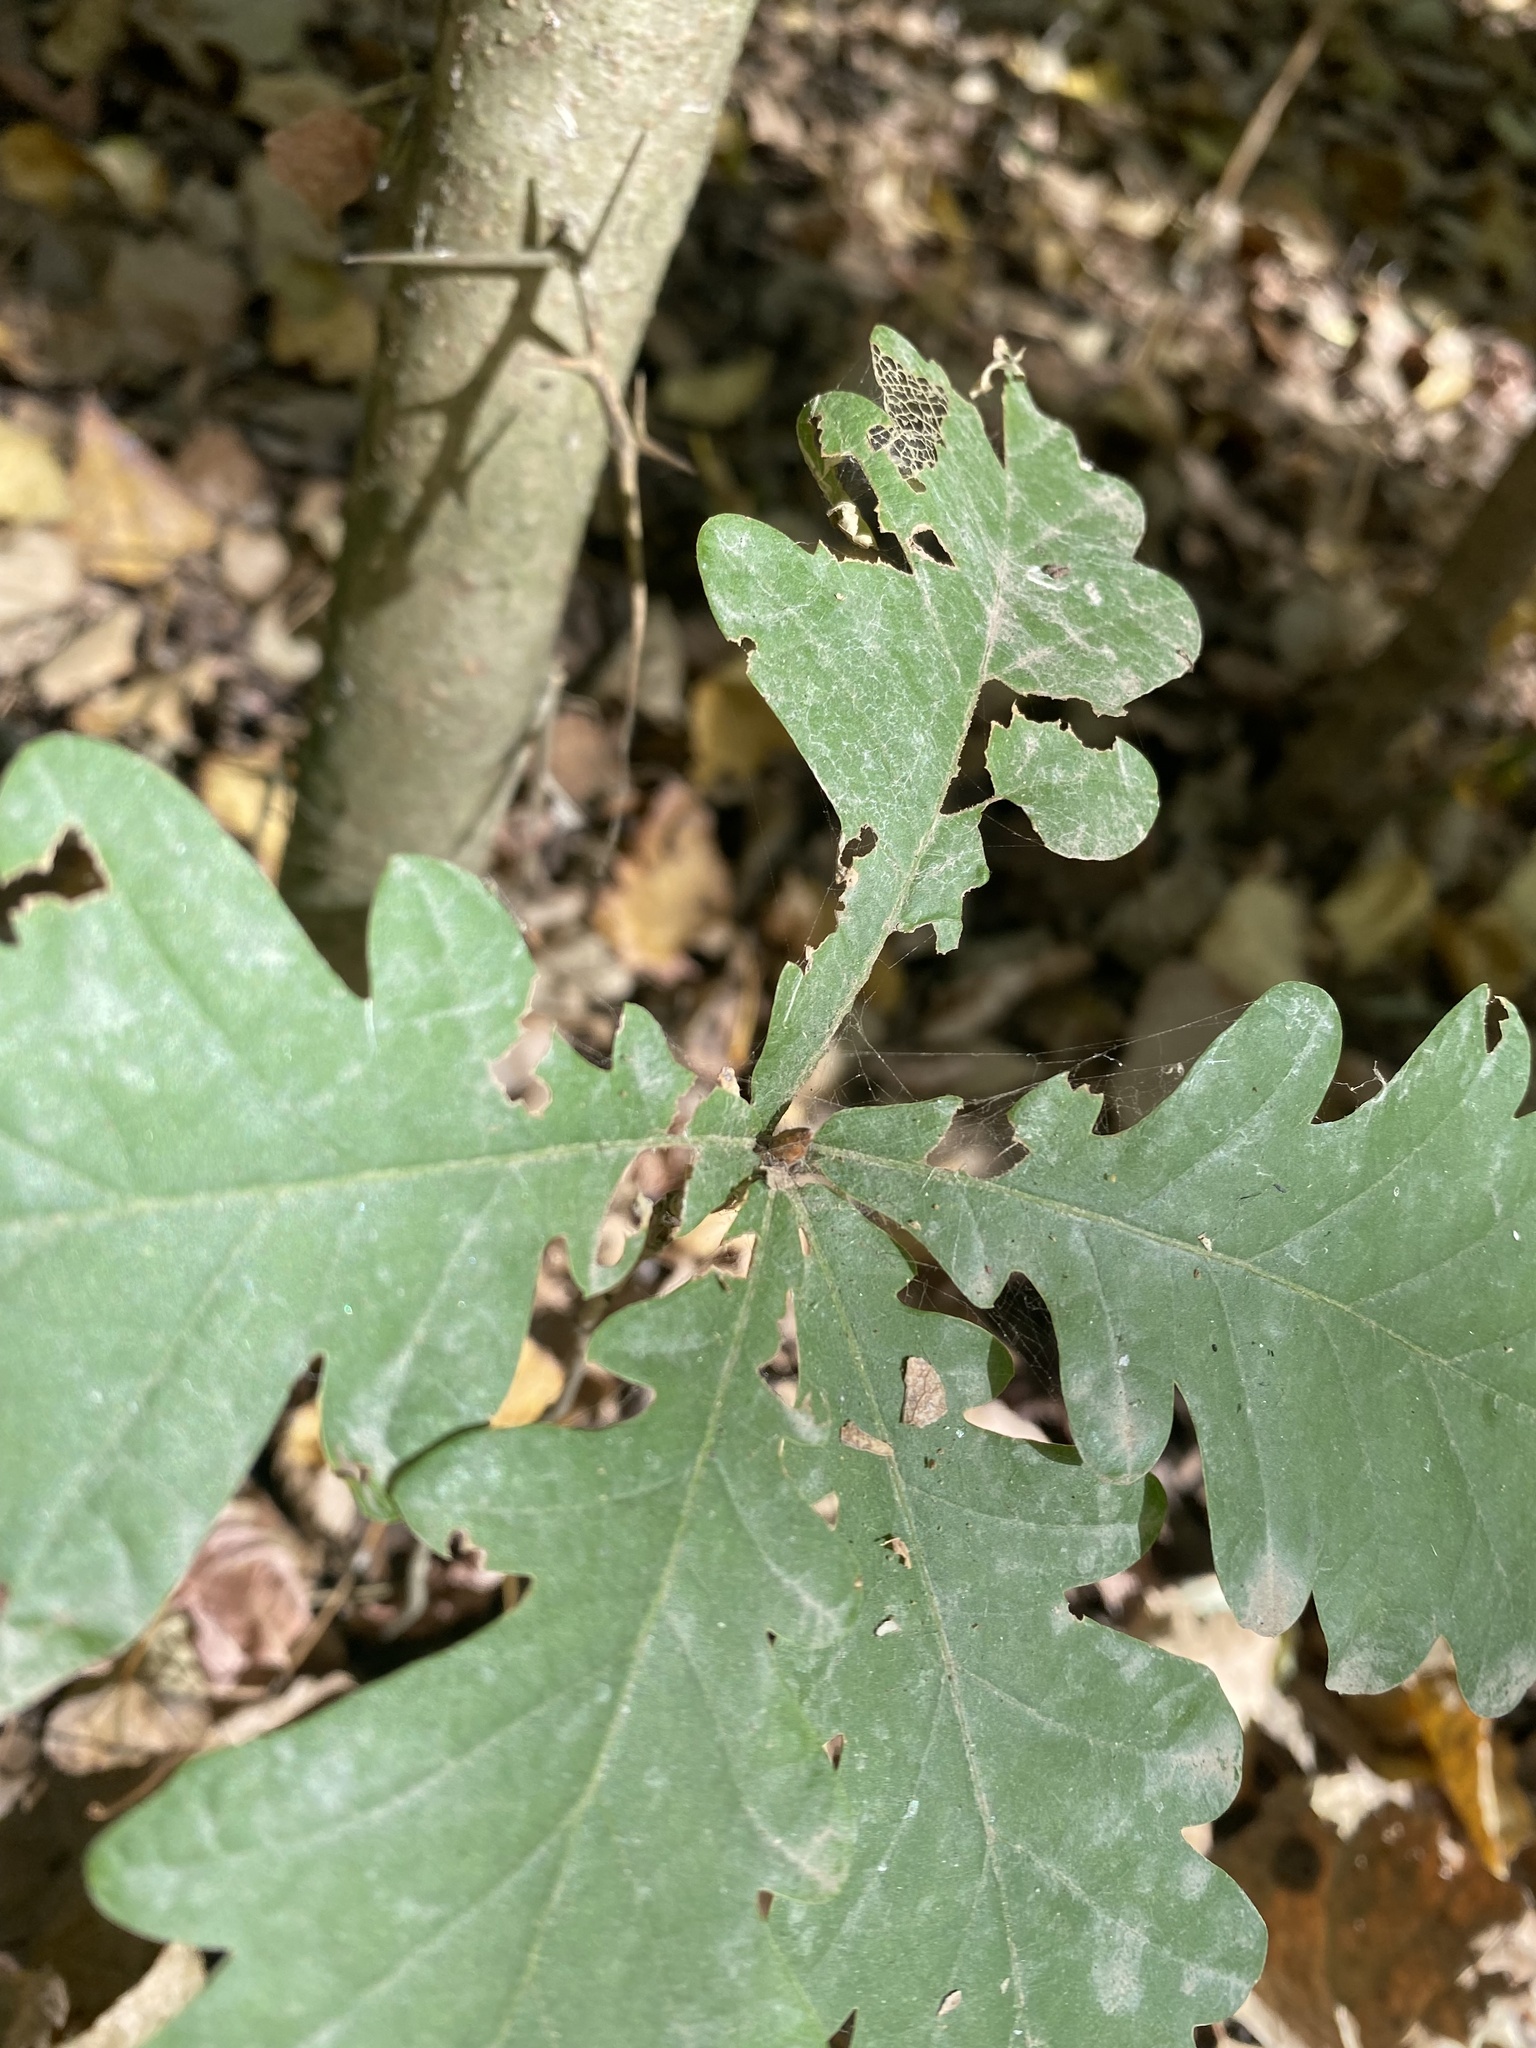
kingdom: Plantae
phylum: Tracheophyta
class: Magnoliopsida
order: Fagales
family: Fagaceae
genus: Quercus
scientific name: Quercus robur
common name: Pedunculate oak
